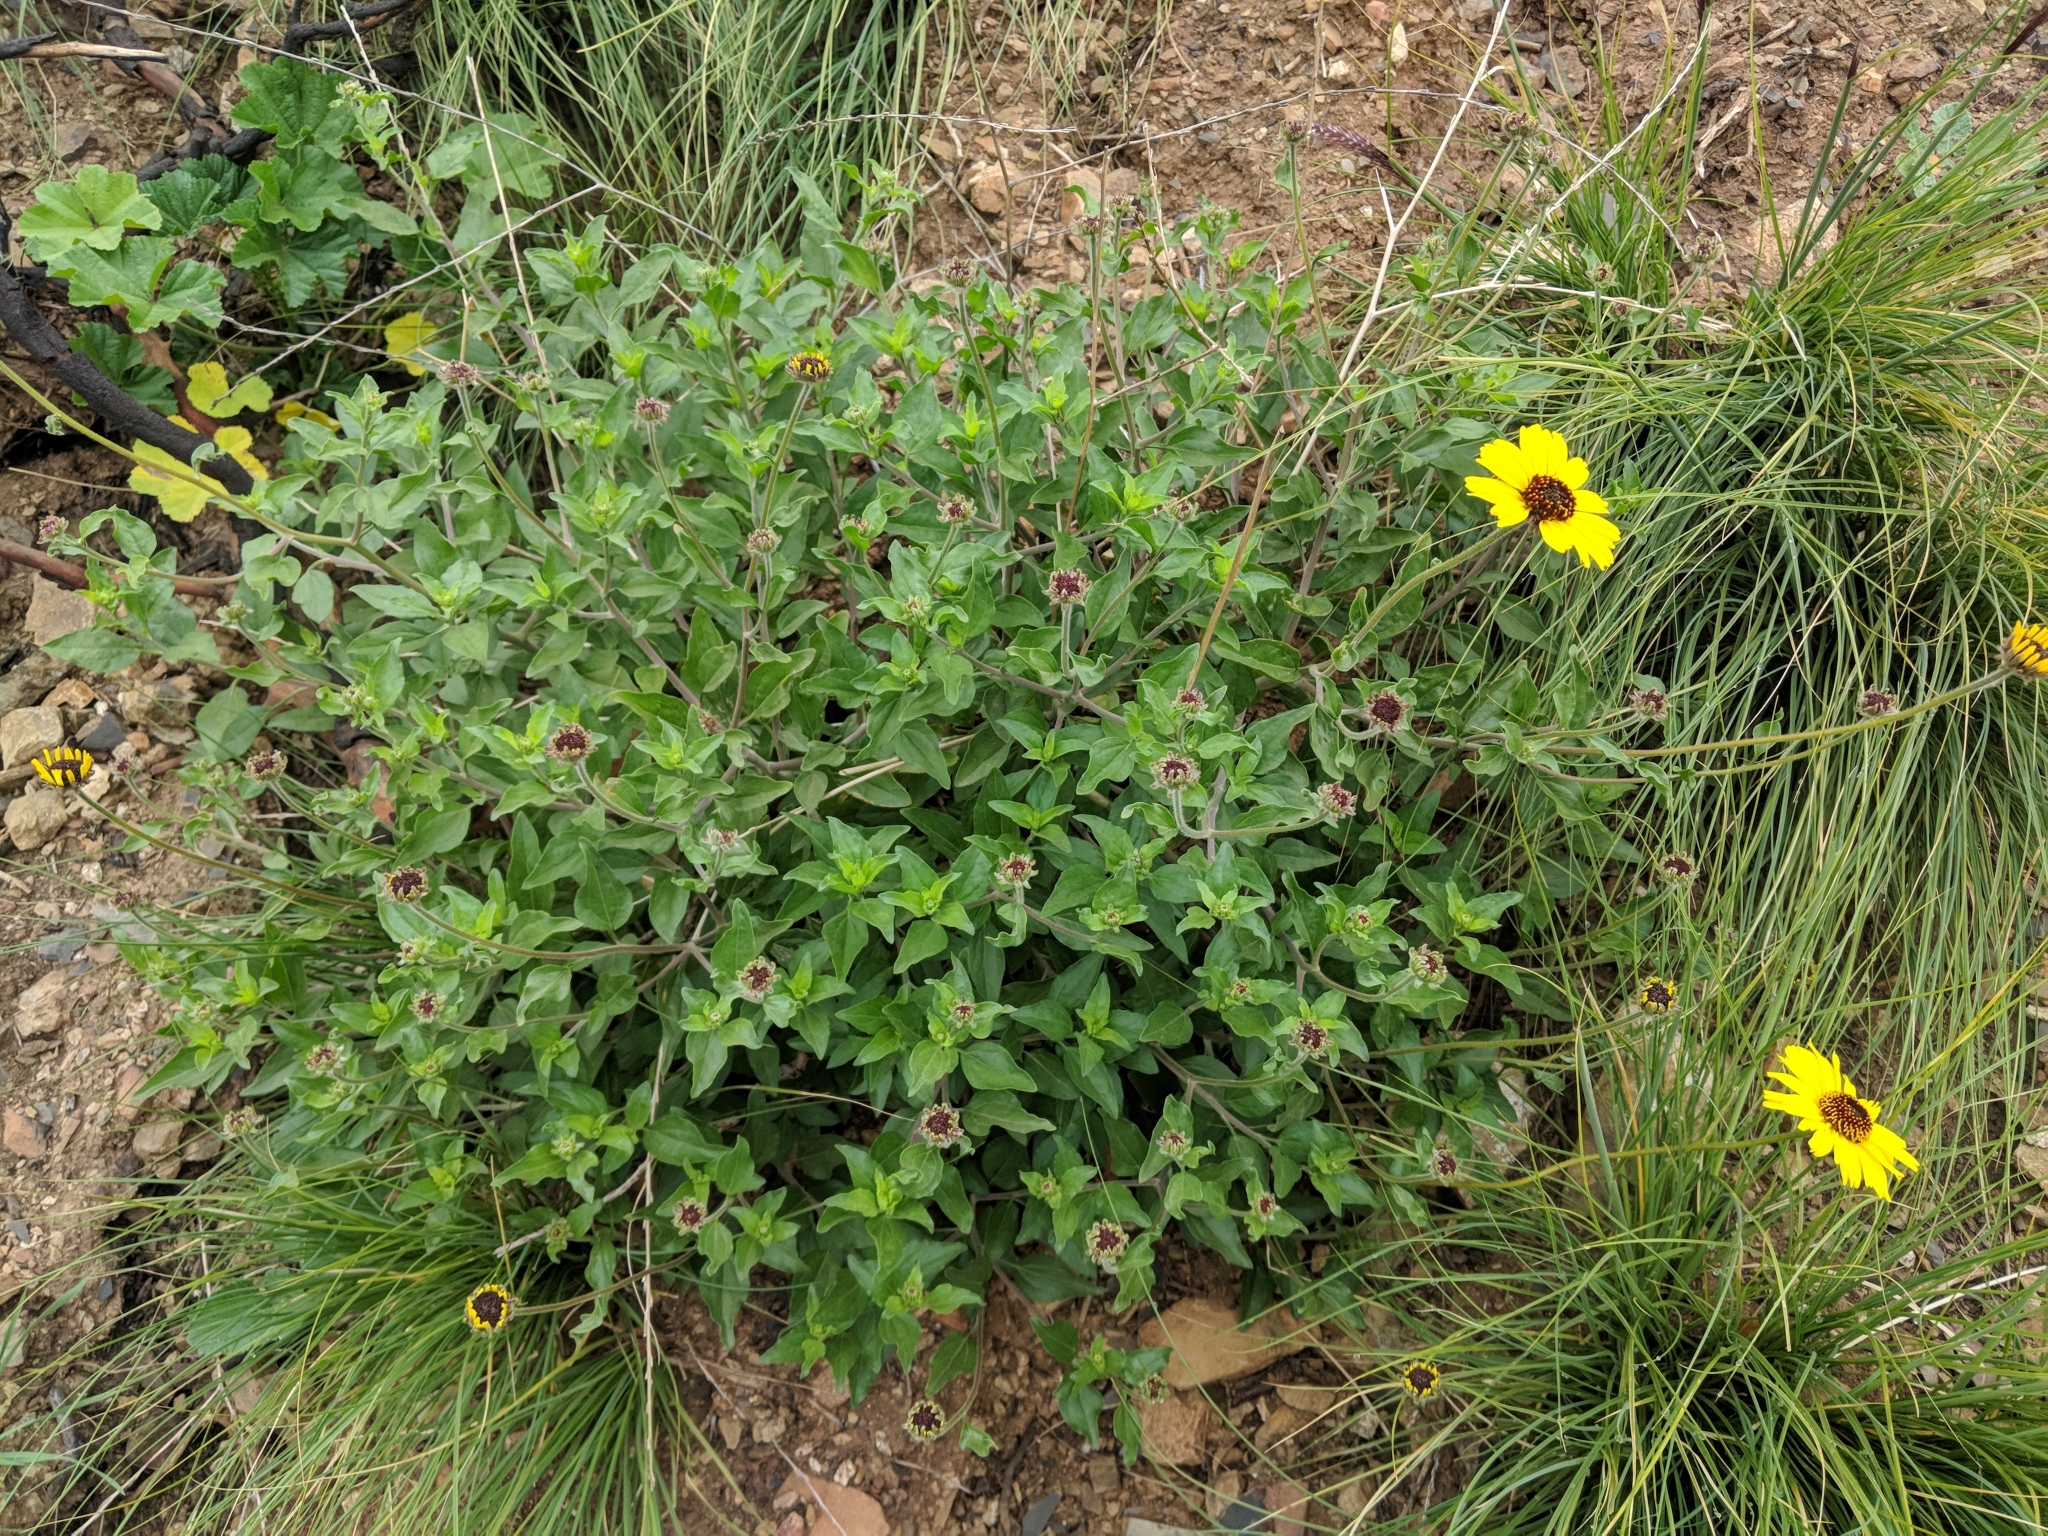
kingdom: Plantae
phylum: Tracheophyta
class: Magnoliopsida
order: Asterales
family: Asteraceae
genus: Encelia
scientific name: Encelia californica
